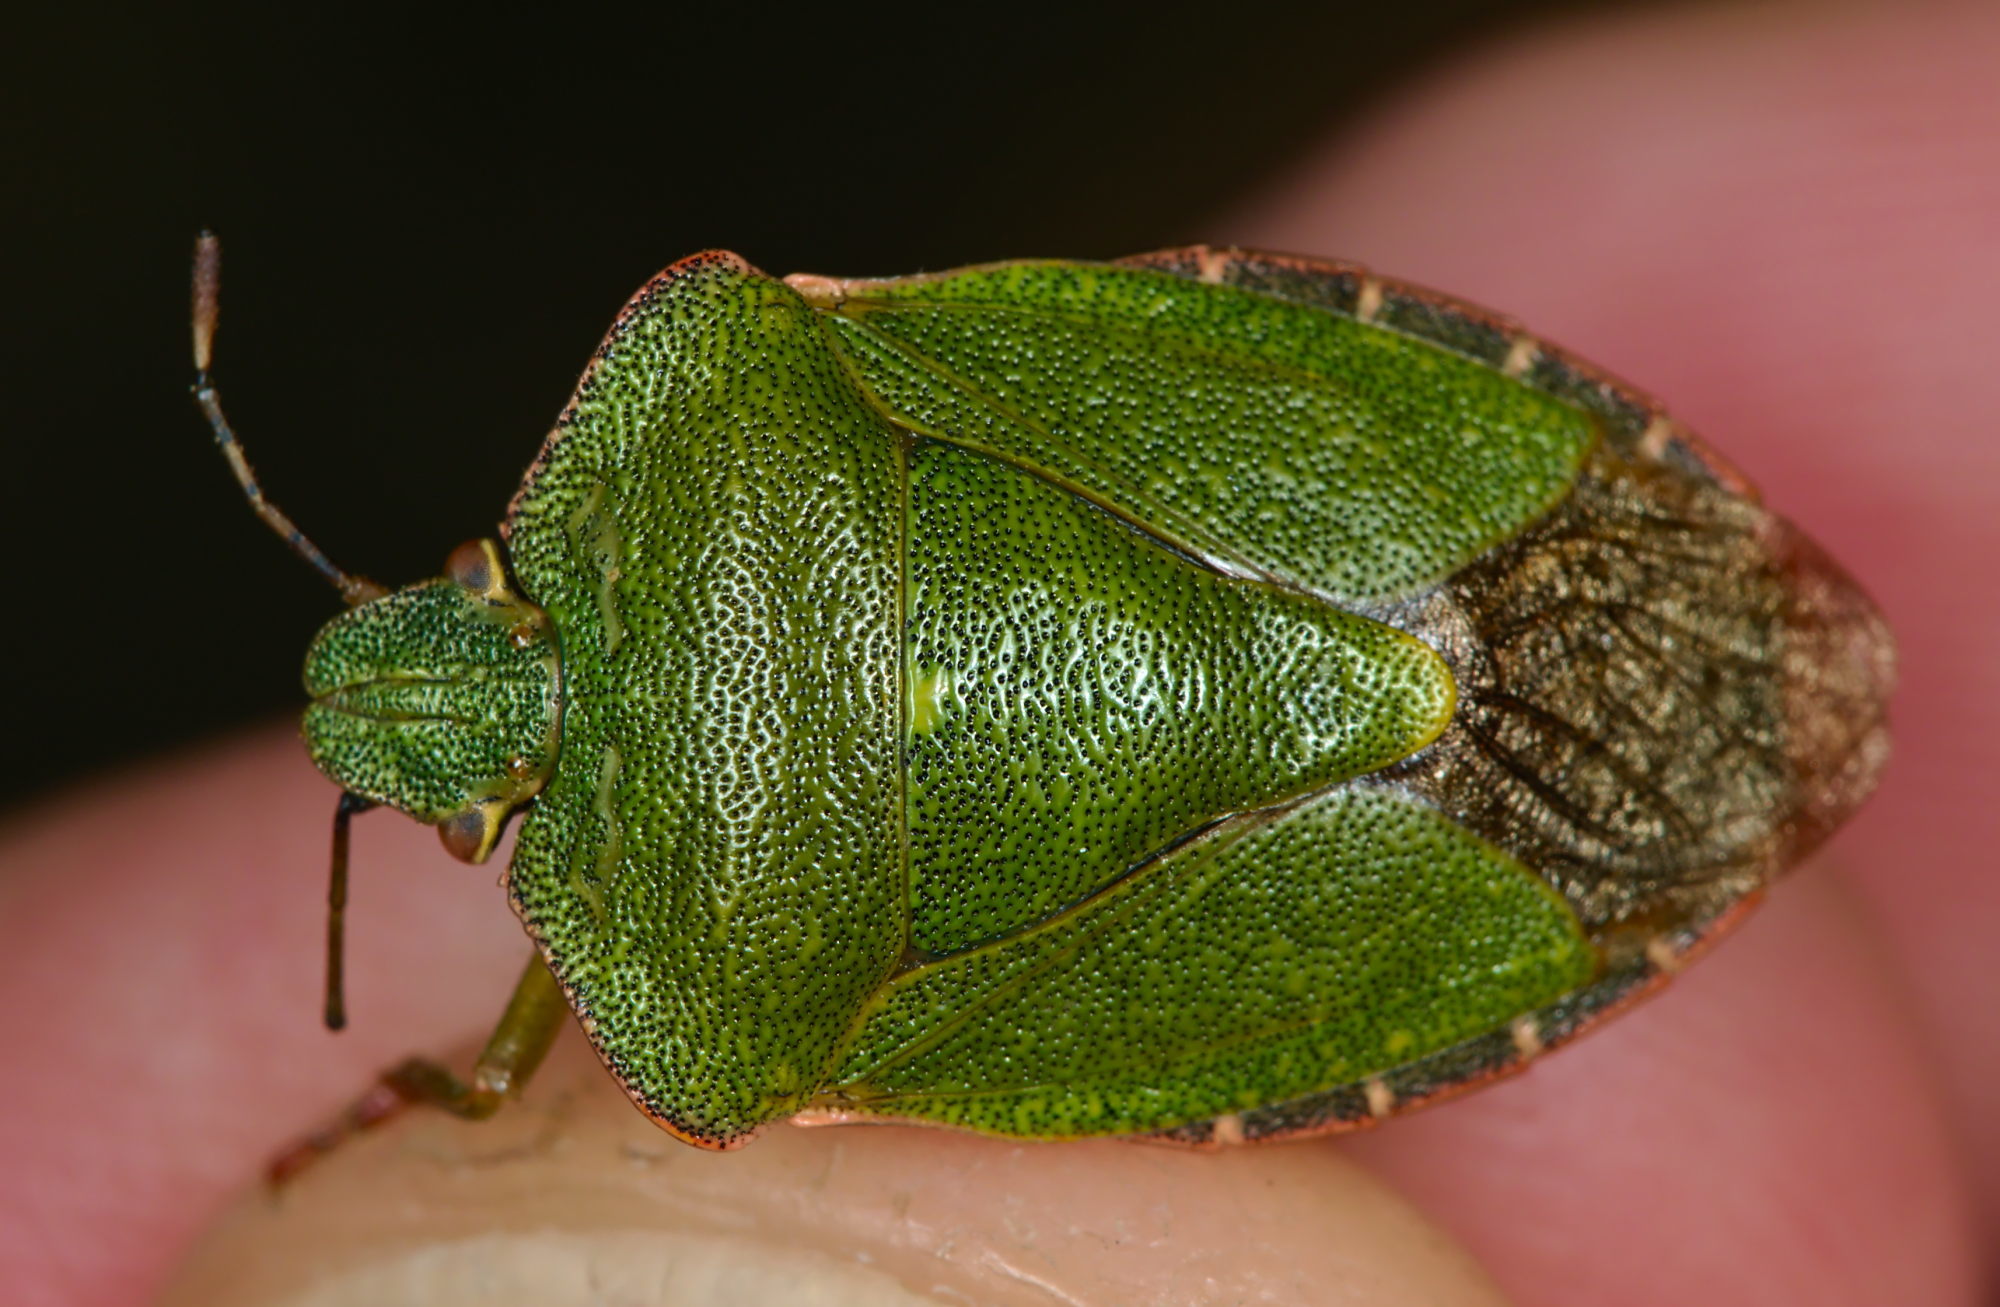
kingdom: Animalia
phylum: Arthropoda
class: Insecta
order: Hemiptera
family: Pentatomidae
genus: Palomena
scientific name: Palomena prasina
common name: Green shieldbug
